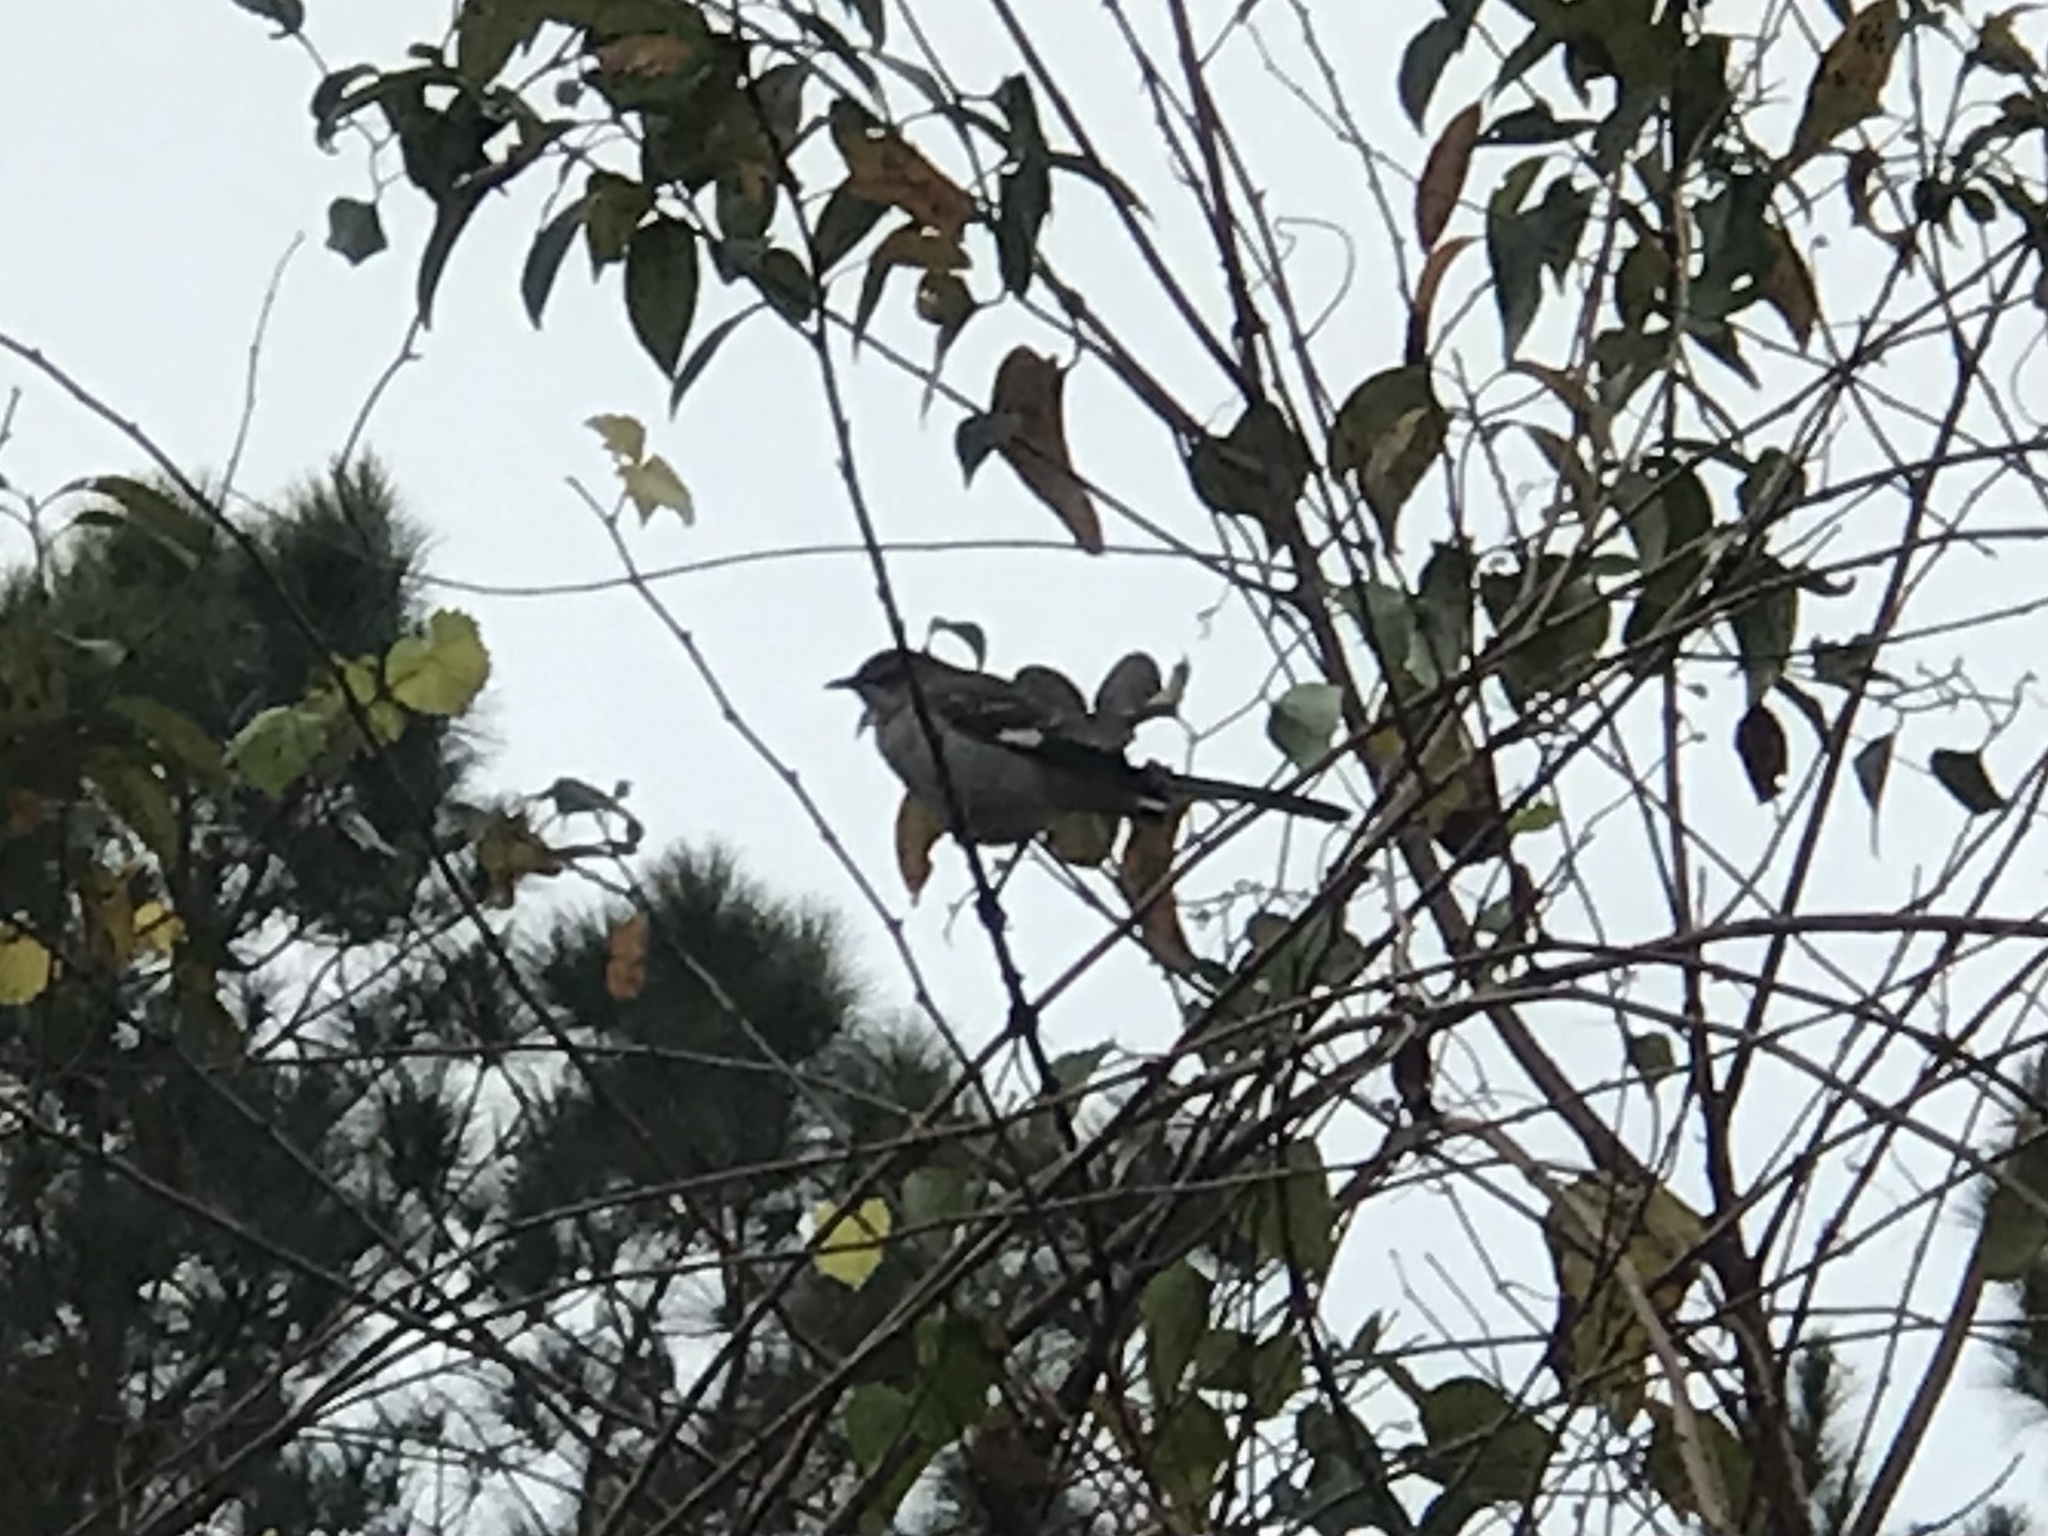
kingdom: Animalia
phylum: Chordata
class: Aves
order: Passeriformes
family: Mimidae
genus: Mimus
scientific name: Mimus polyglottos
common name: Northern mockingbird
